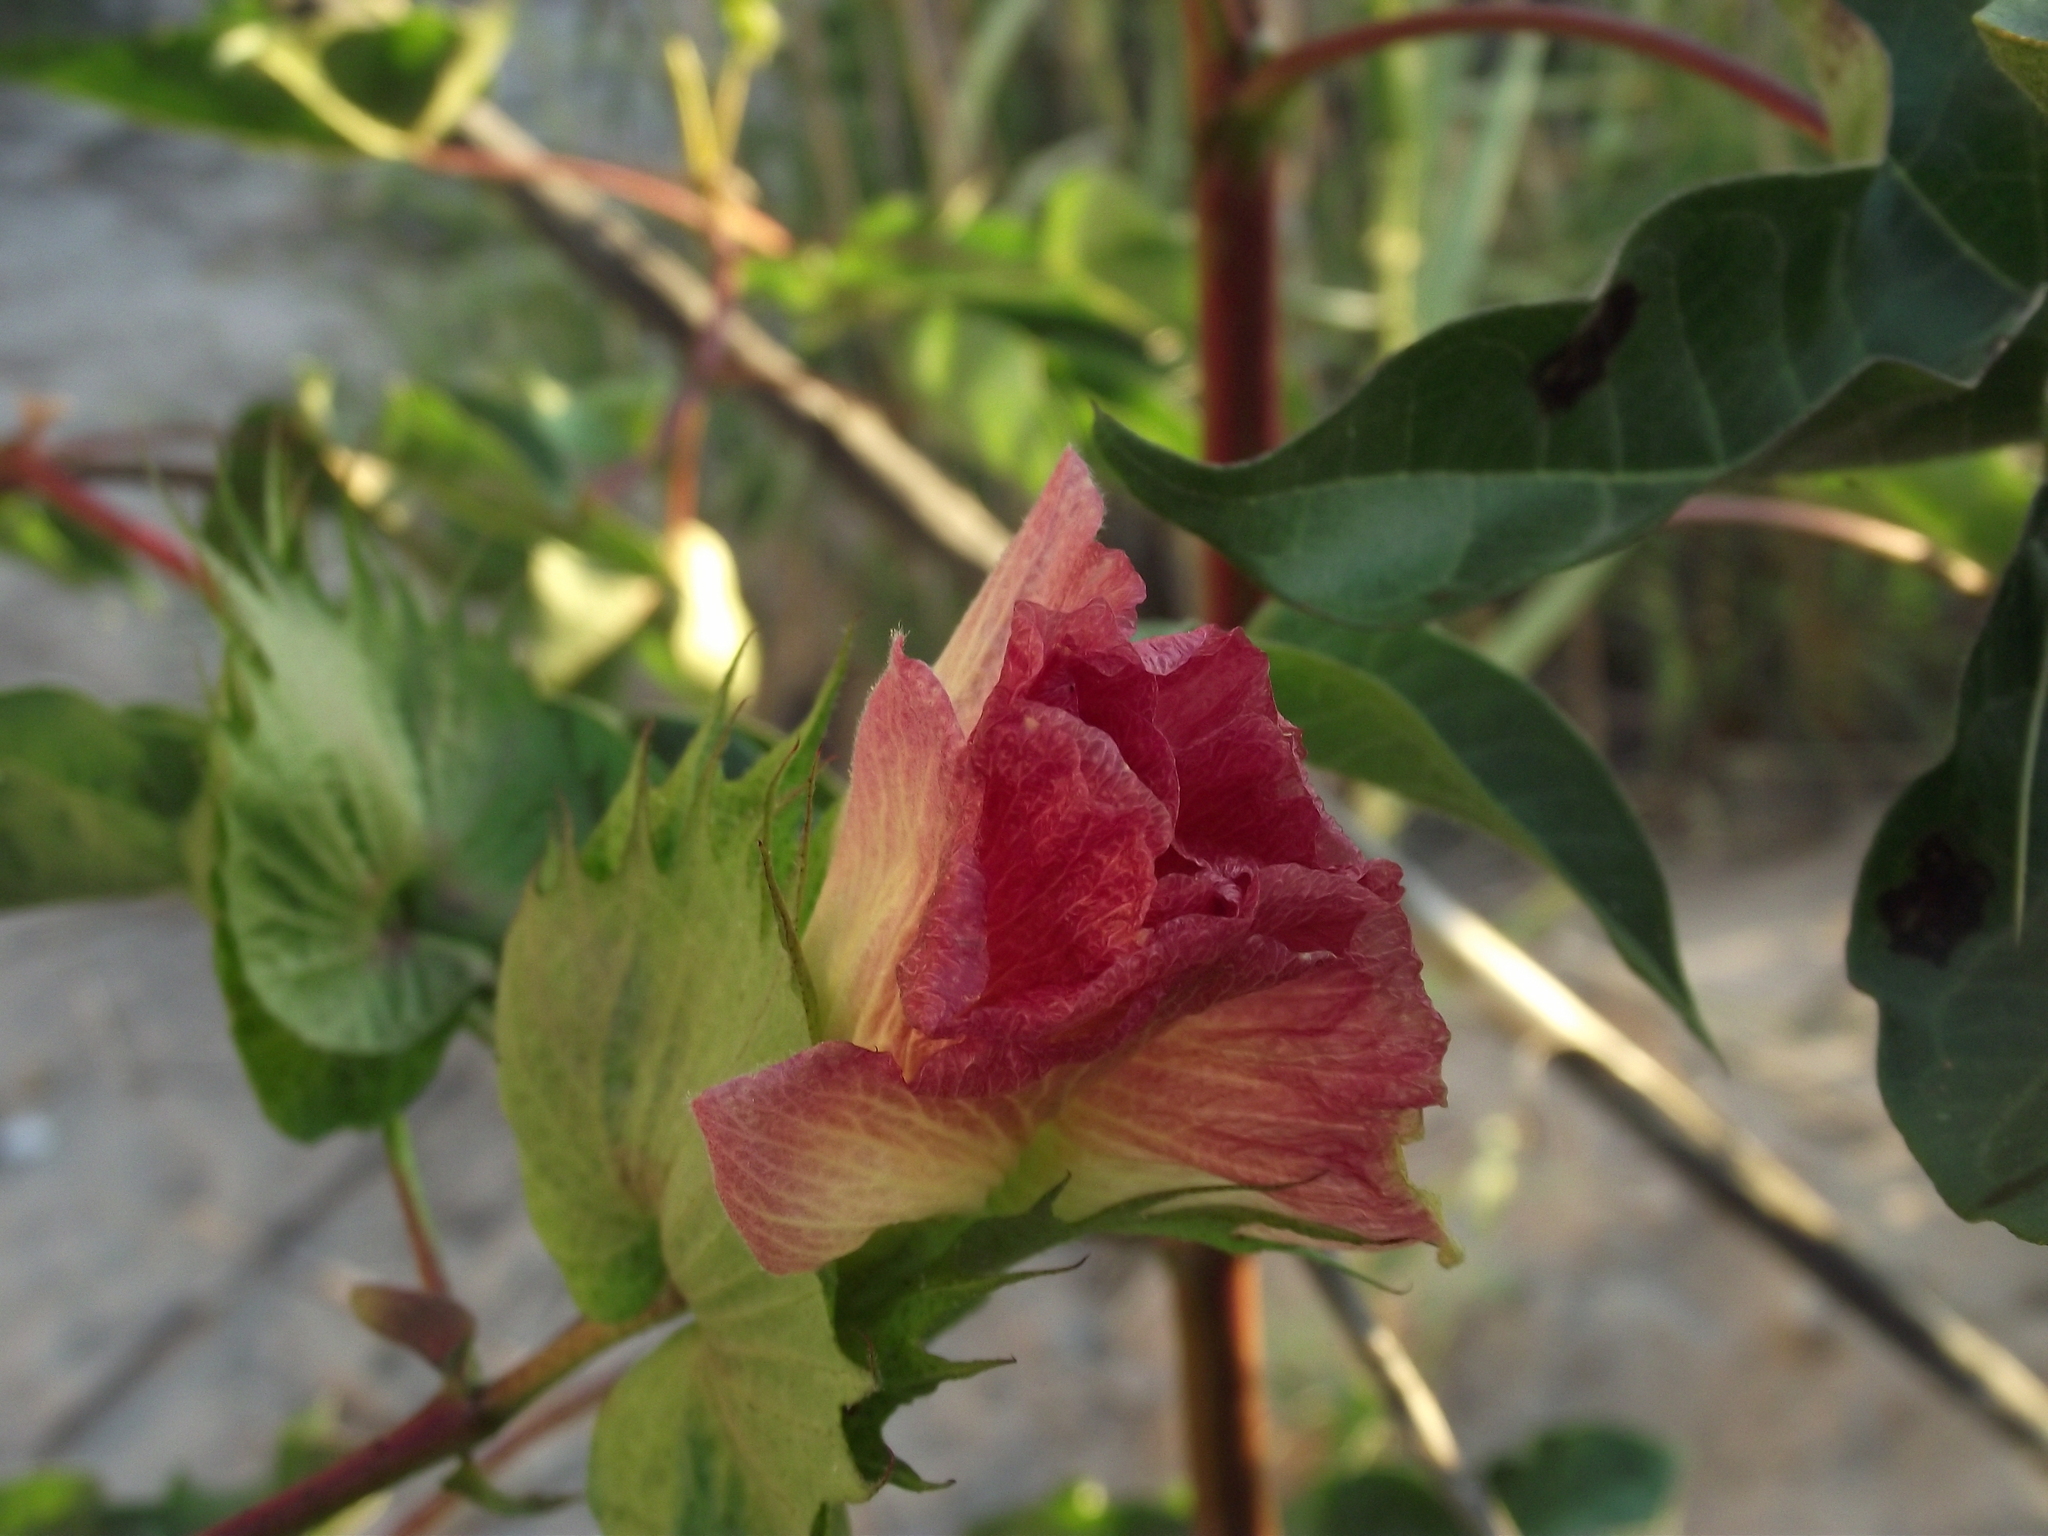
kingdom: Plantae
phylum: Tracheophyta
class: Magnoliopsida
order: Malvales
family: Malvaceae
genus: Gossypium
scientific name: Gossypium barbadense
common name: Creole cotton
